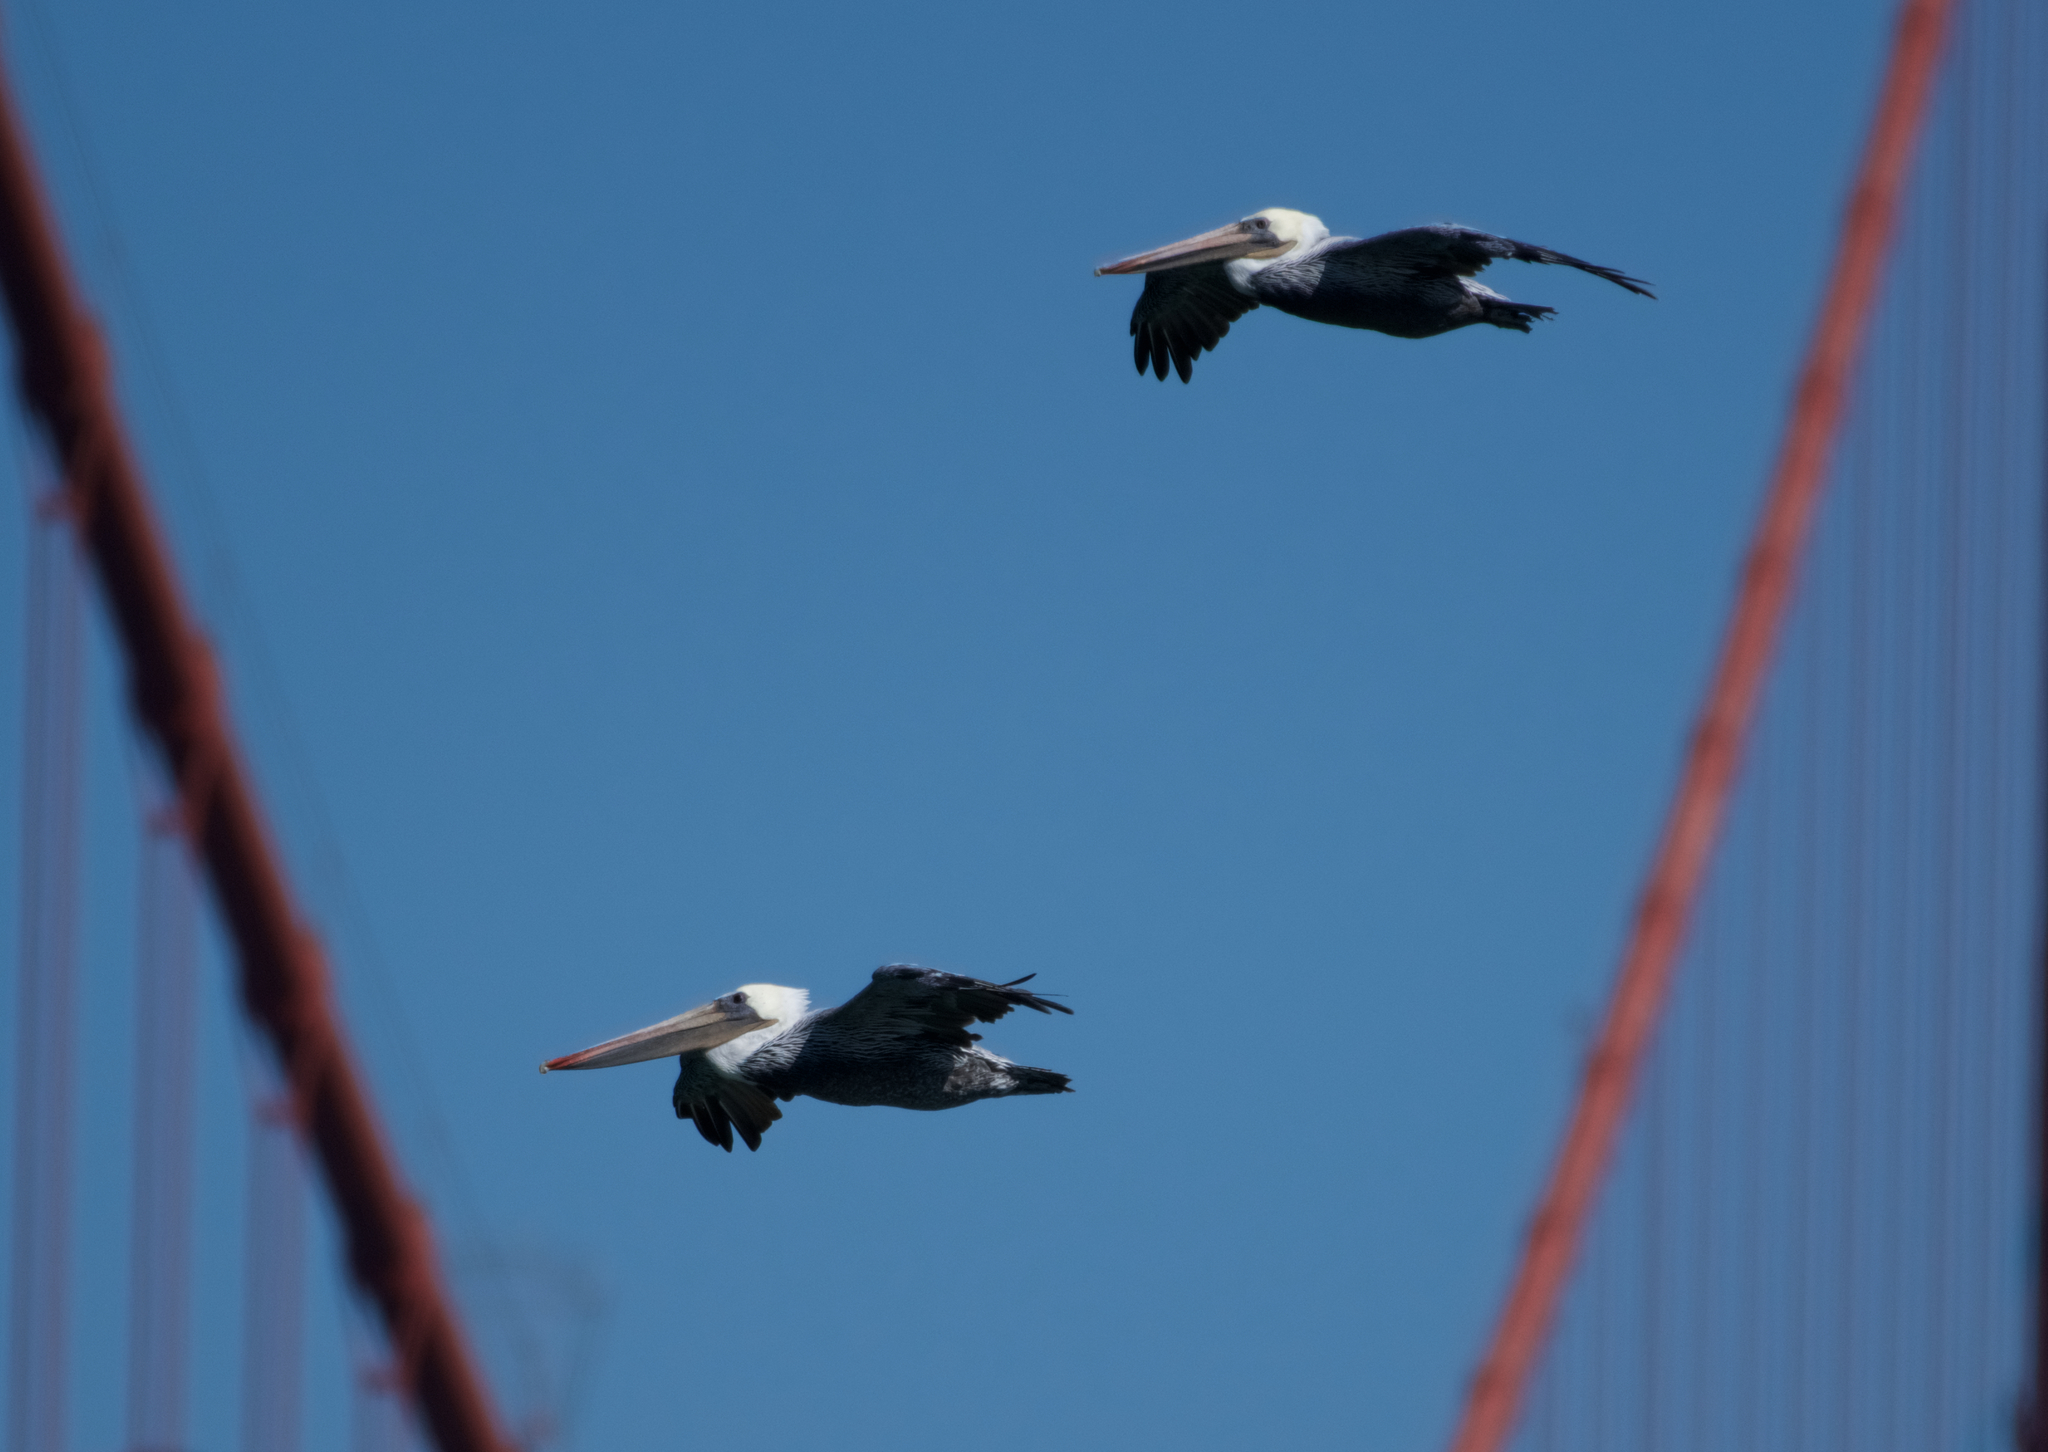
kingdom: Animalia
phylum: Chordata
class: Aves
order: Pelecaniformes
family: Pelecanidae
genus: Pelecanus
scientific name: Pelecanus occidentalis
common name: Brown pelican
